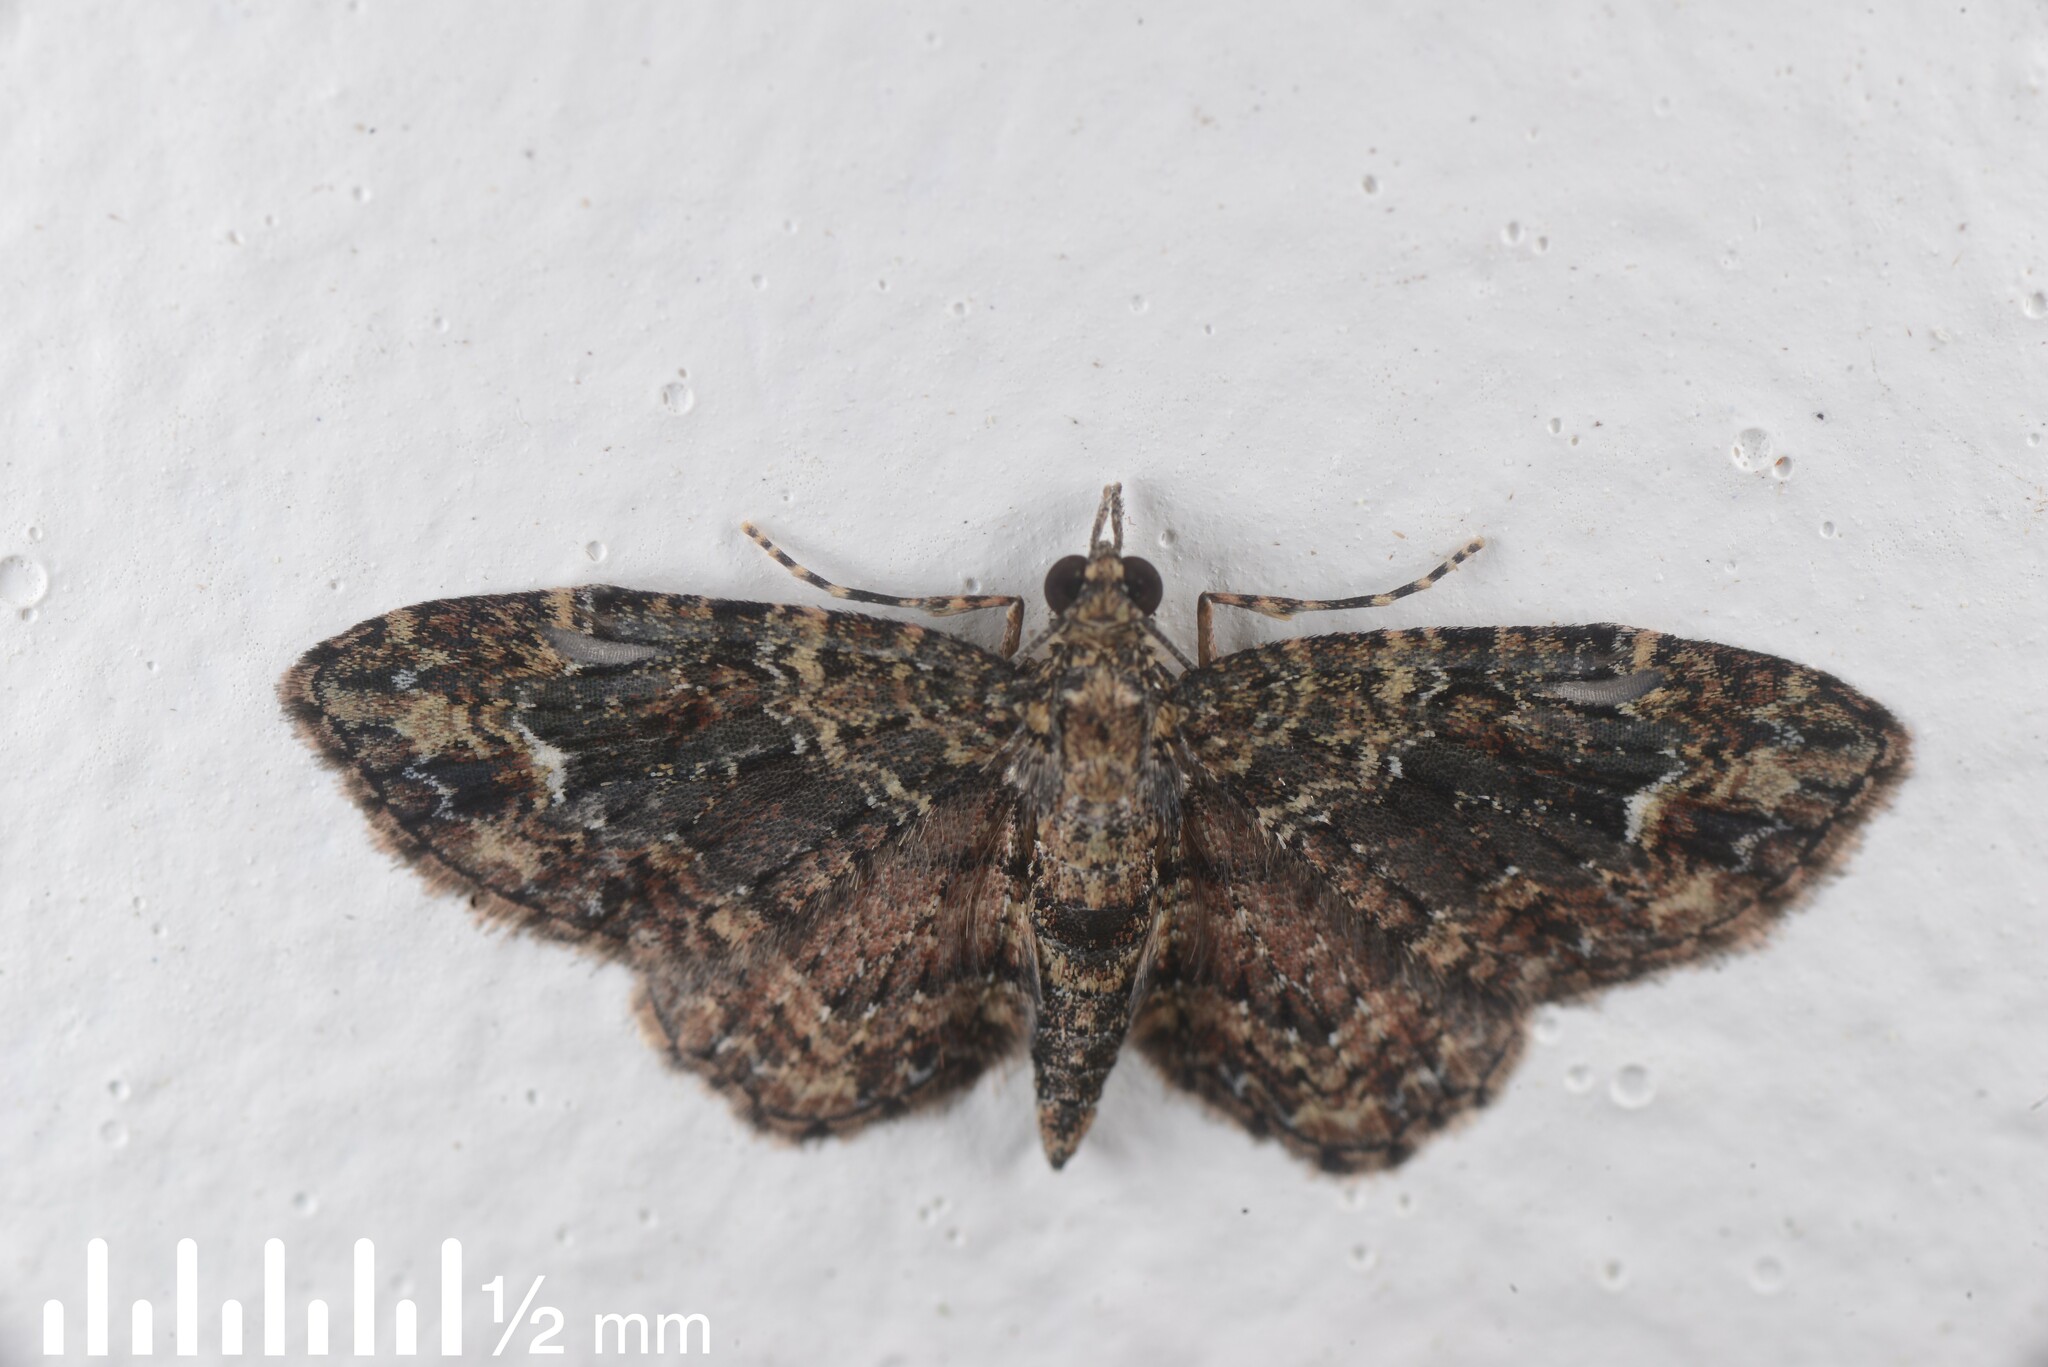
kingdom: Animalia
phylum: Arthropoda
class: Insecta
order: Lepidoptera
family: Geometridae
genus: Pasiphilodes
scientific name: Pasiphilodes testulata
